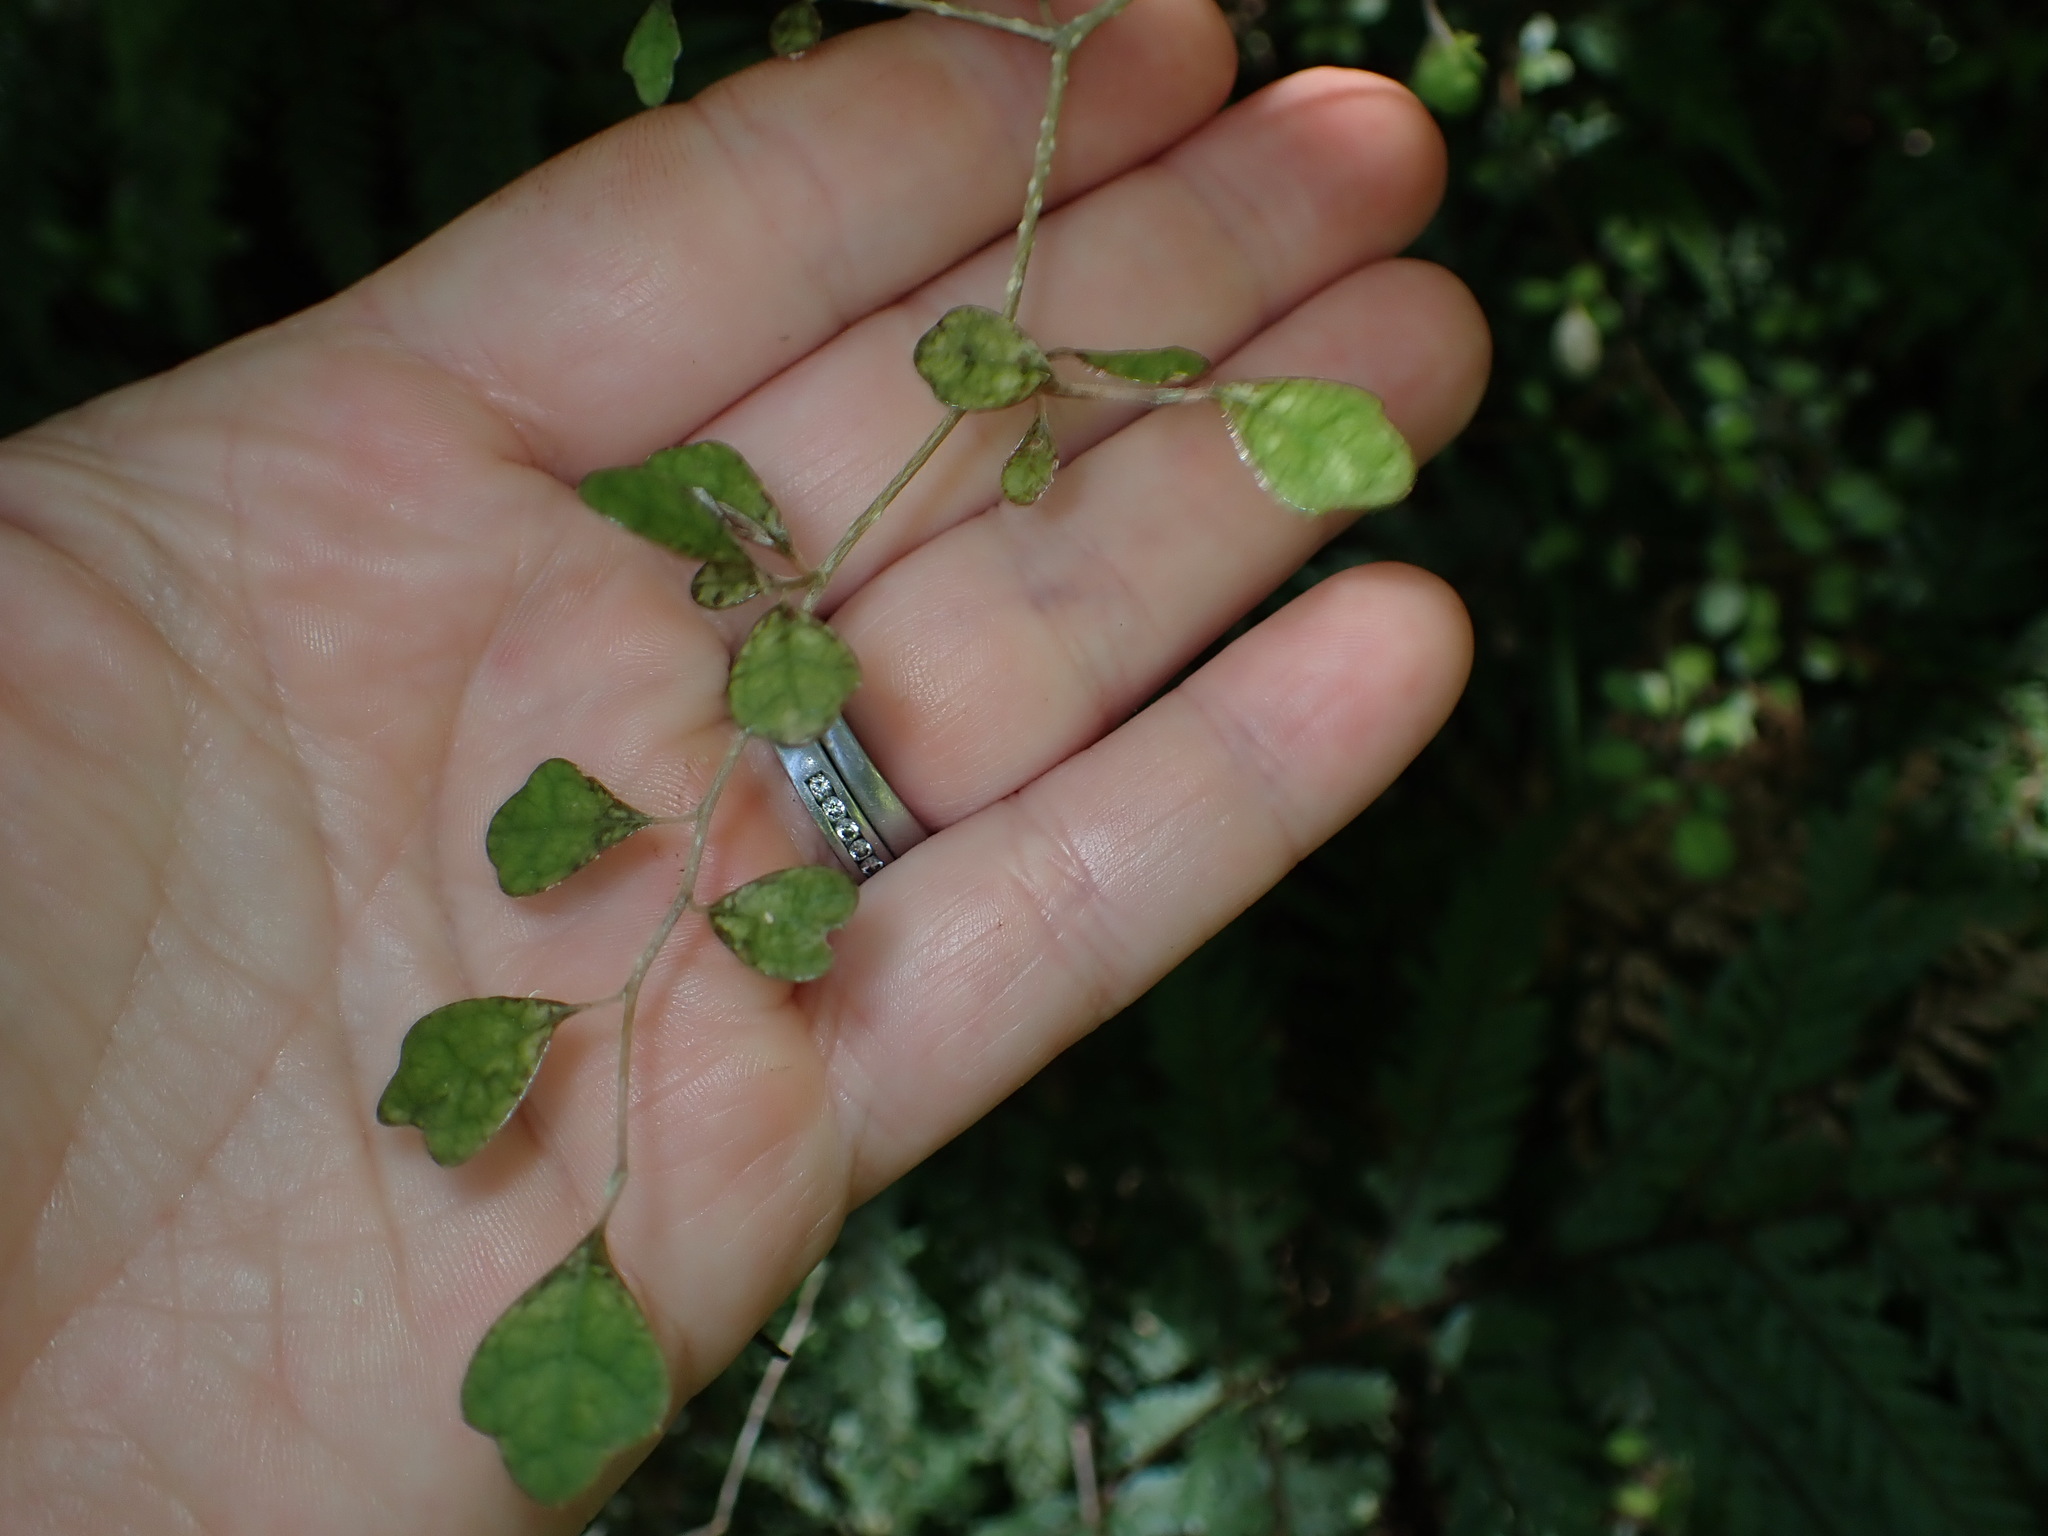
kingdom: Plantae
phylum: Tracheophyta
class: Magnoliopsida
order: Apiales
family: Pennantiaceae
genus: Pennantia
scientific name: Pennantia corymbosa
